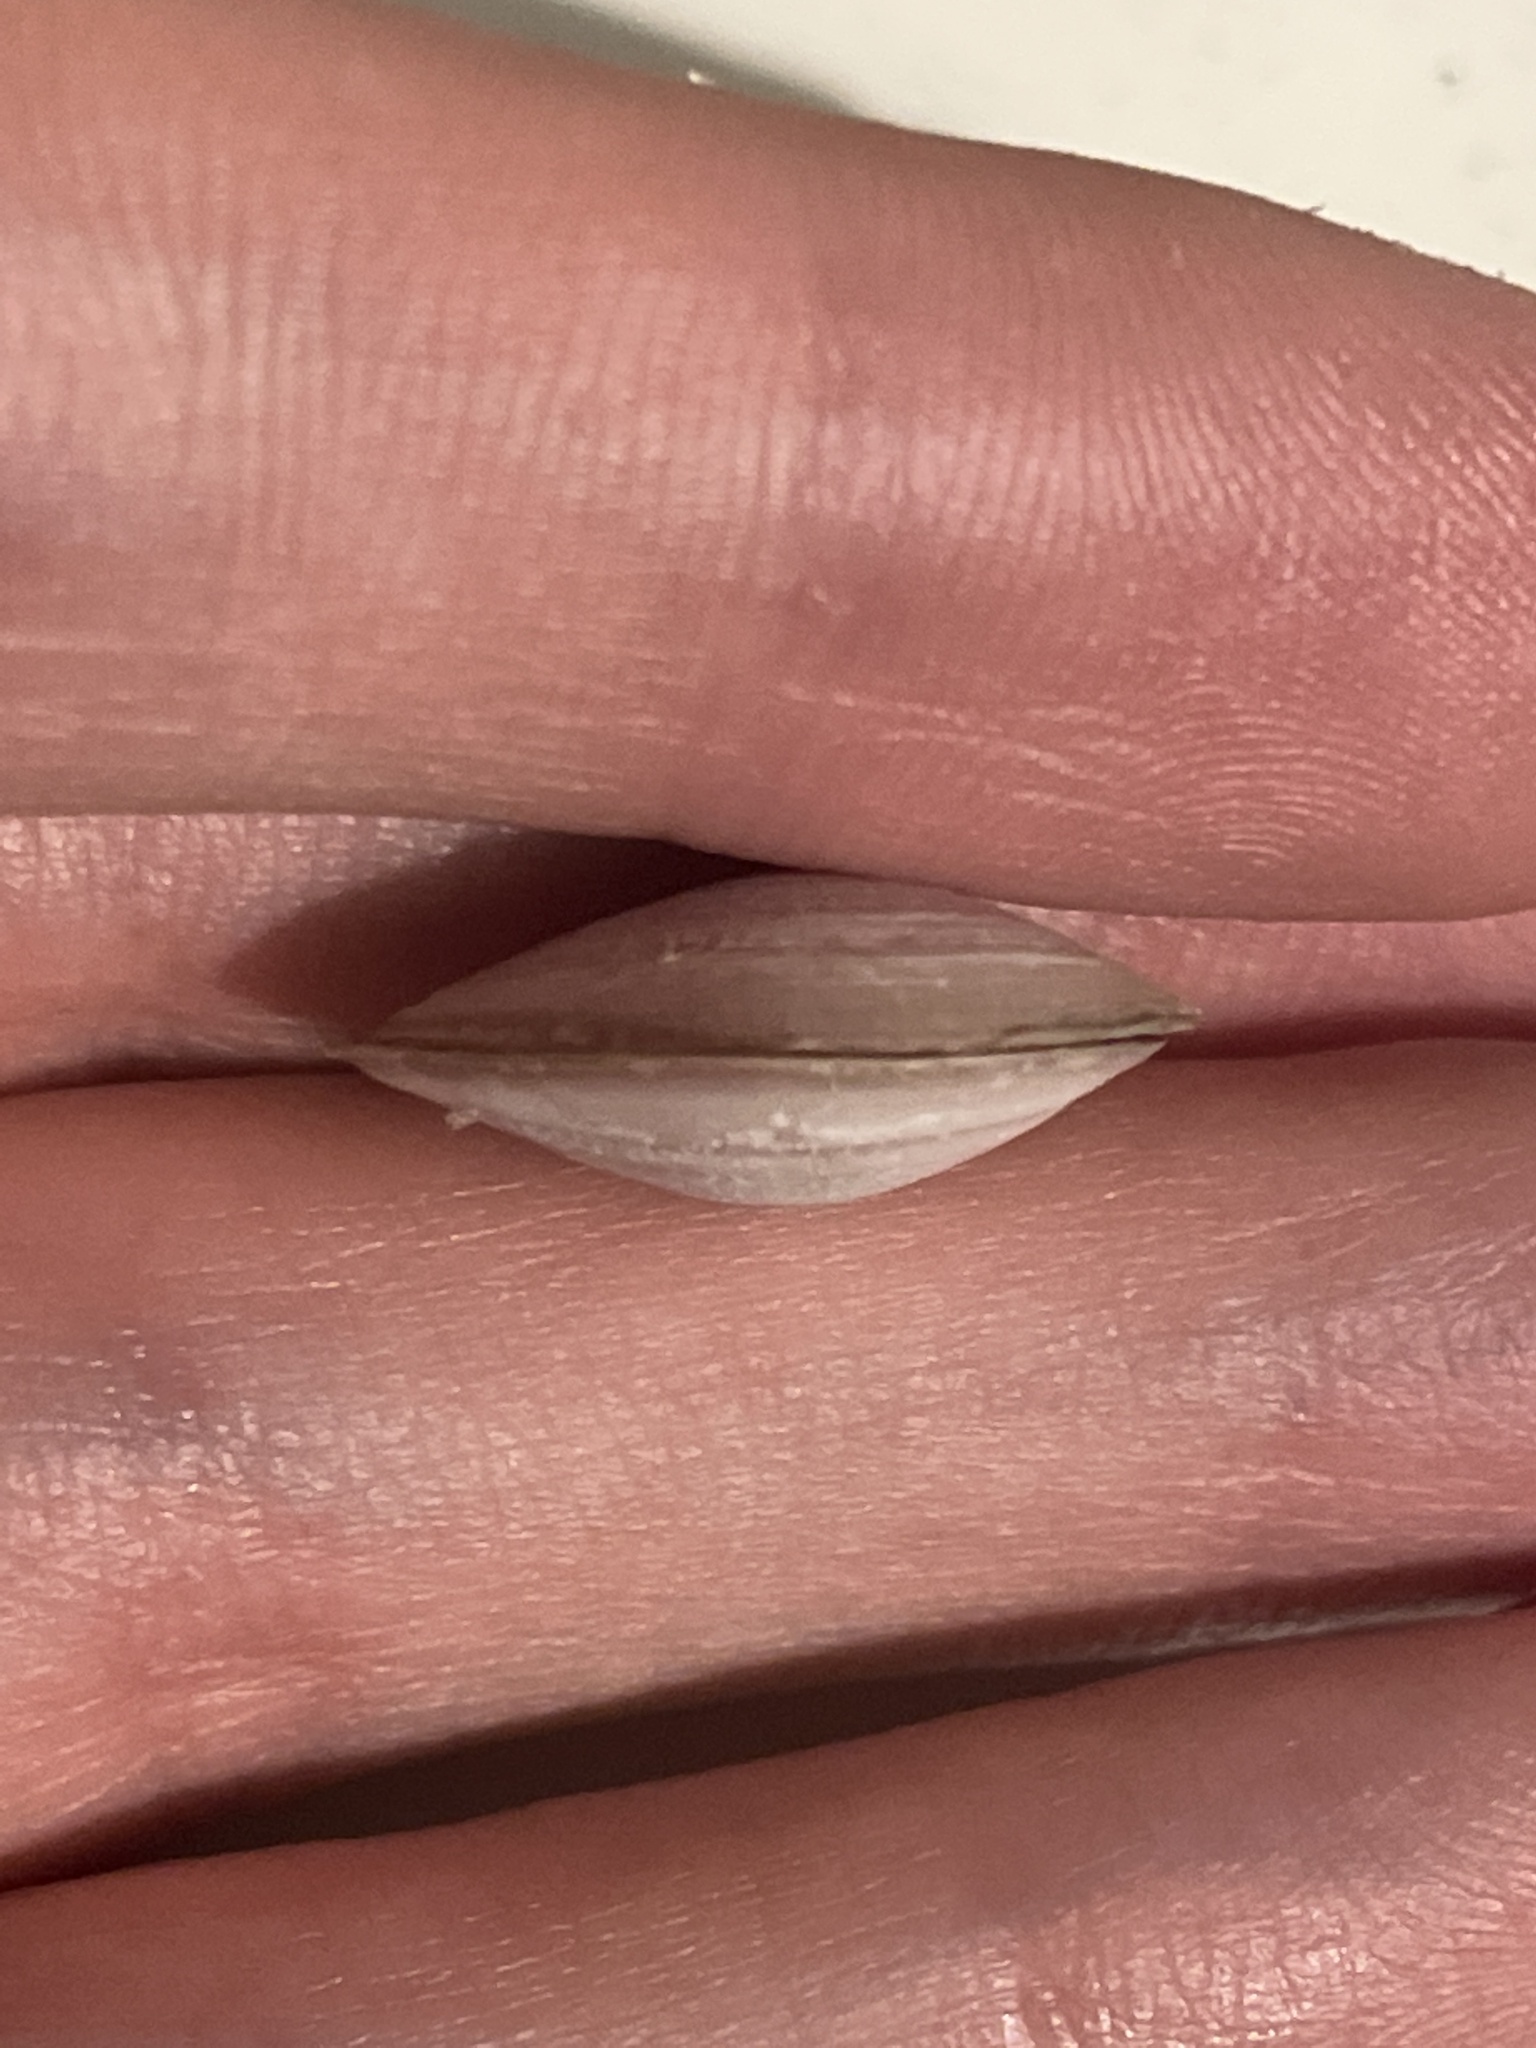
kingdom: Animalia
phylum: Mollusca
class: Bivalvia
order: Cardiida
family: Tellinidae
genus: Macoma
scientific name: Macoma balthica
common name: Baltic tellin
